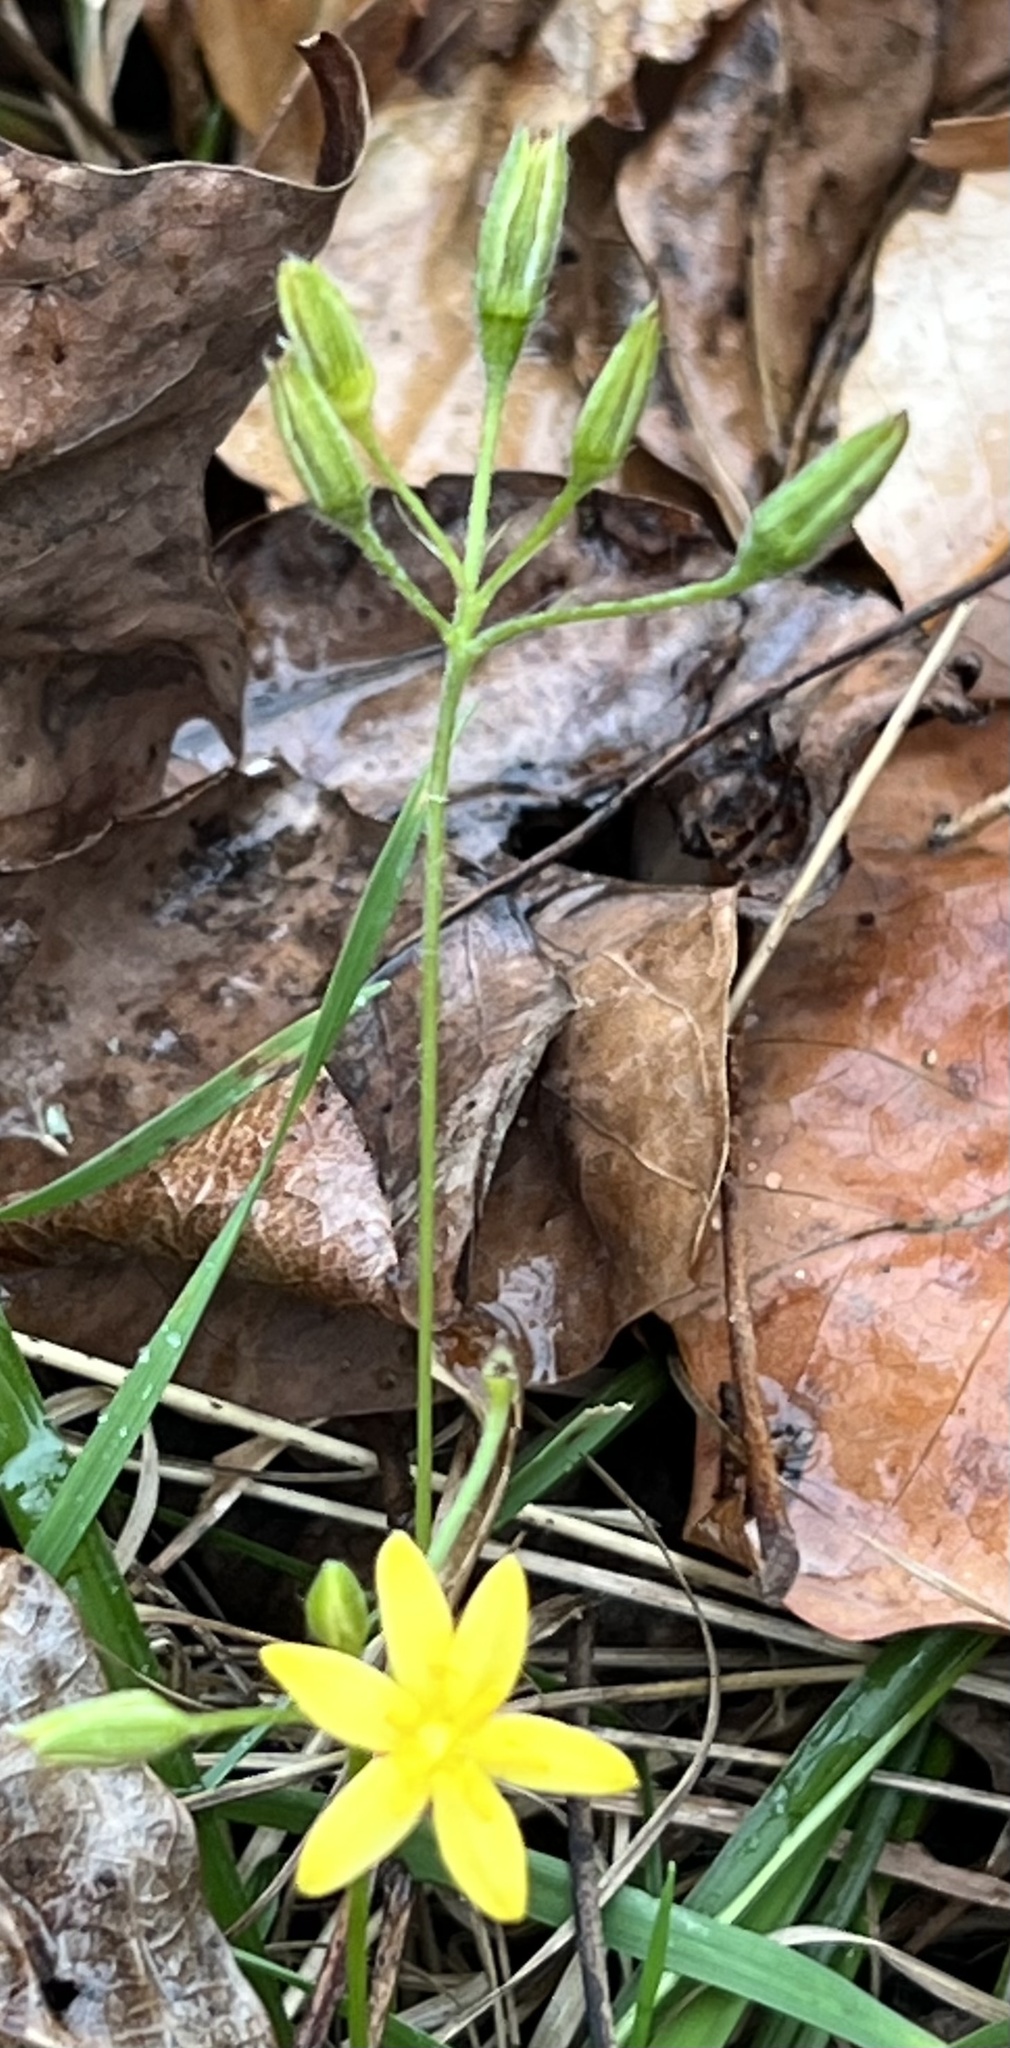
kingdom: Plantae
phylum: Tracheophyta
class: Liliopsida
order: Asparagales
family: Hypoxidaceae
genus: Hypoxis
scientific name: Hypoxis hirsuta
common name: Common goldstar
